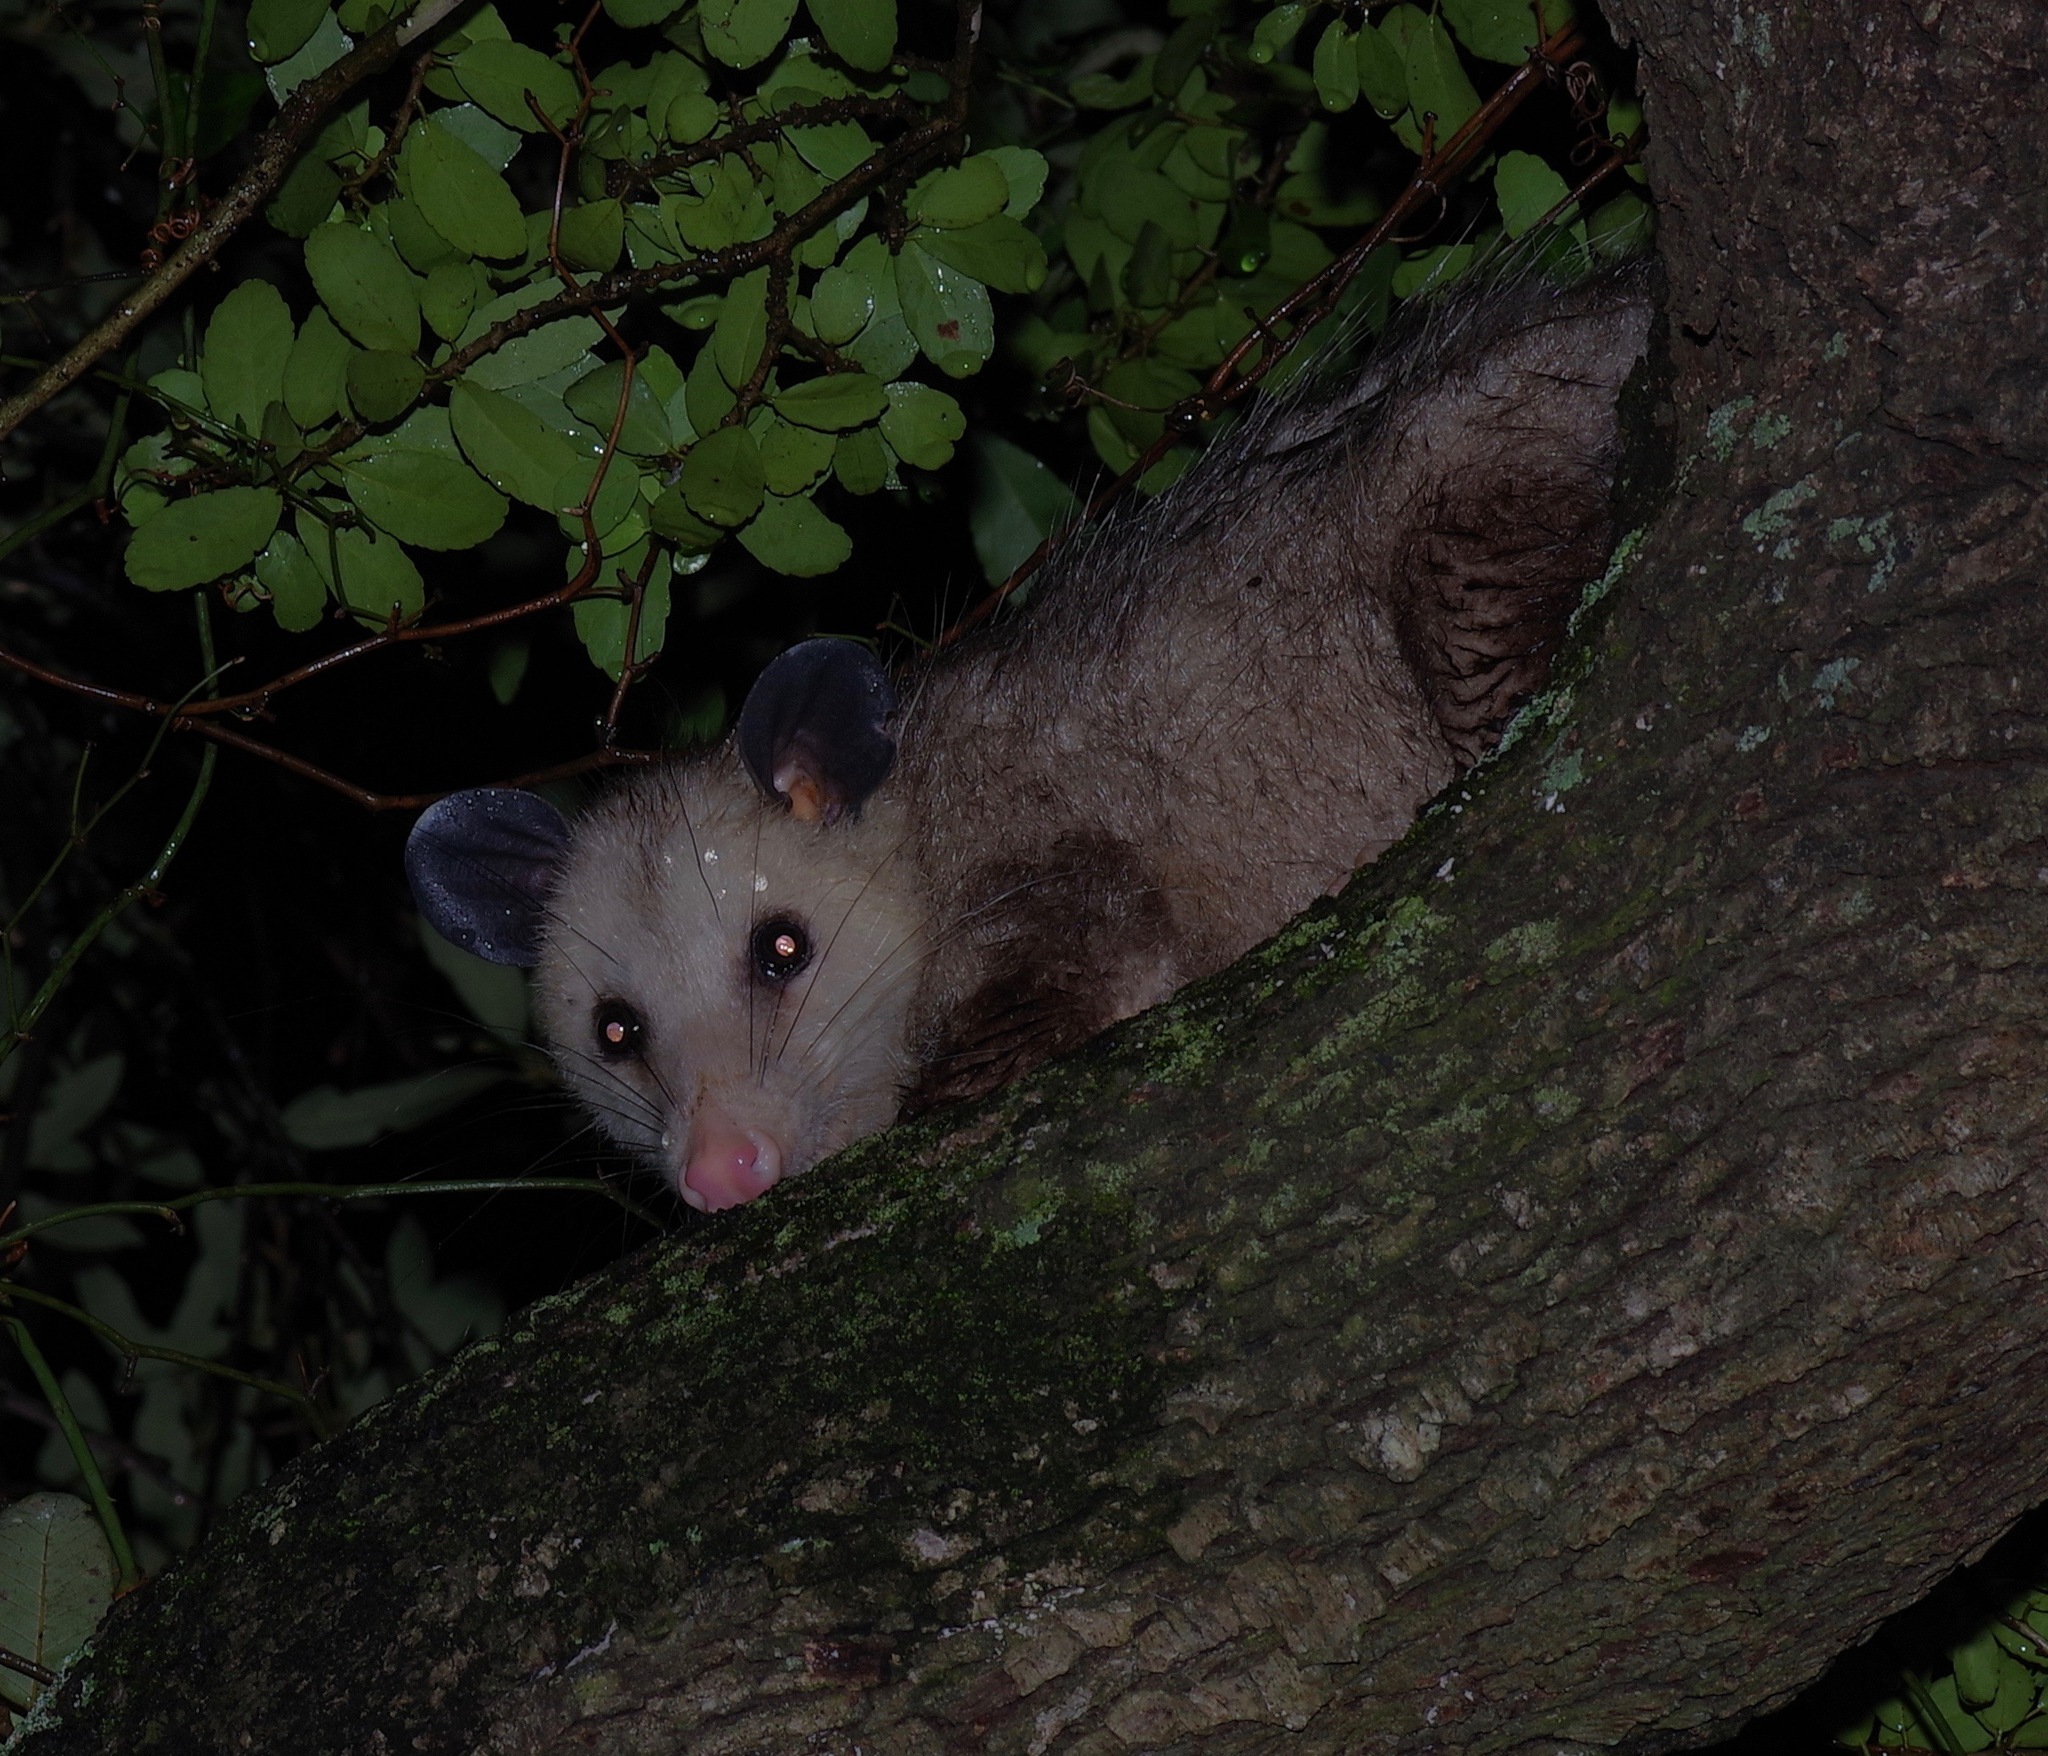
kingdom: Animalia
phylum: Chordata
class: Mammalia
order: Didelphimorphia
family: Didelphidae
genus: Didelphis
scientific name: Didelphis virginiana
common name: Virginia opossum
